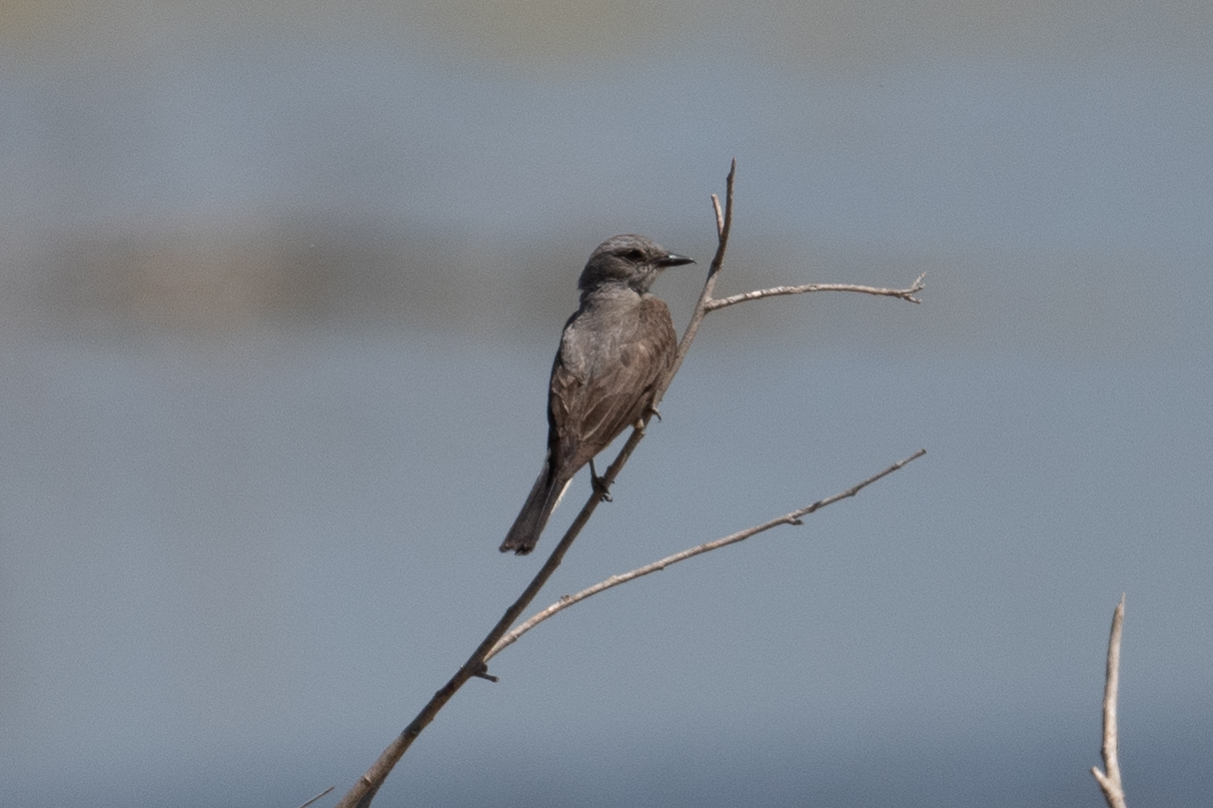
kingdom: Animalia
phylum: Chordata
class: Aves
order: Passeriformes
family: Tyrannidae
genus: Tyrannus
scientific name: Tyrannus verticalis
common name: Western kingbird
